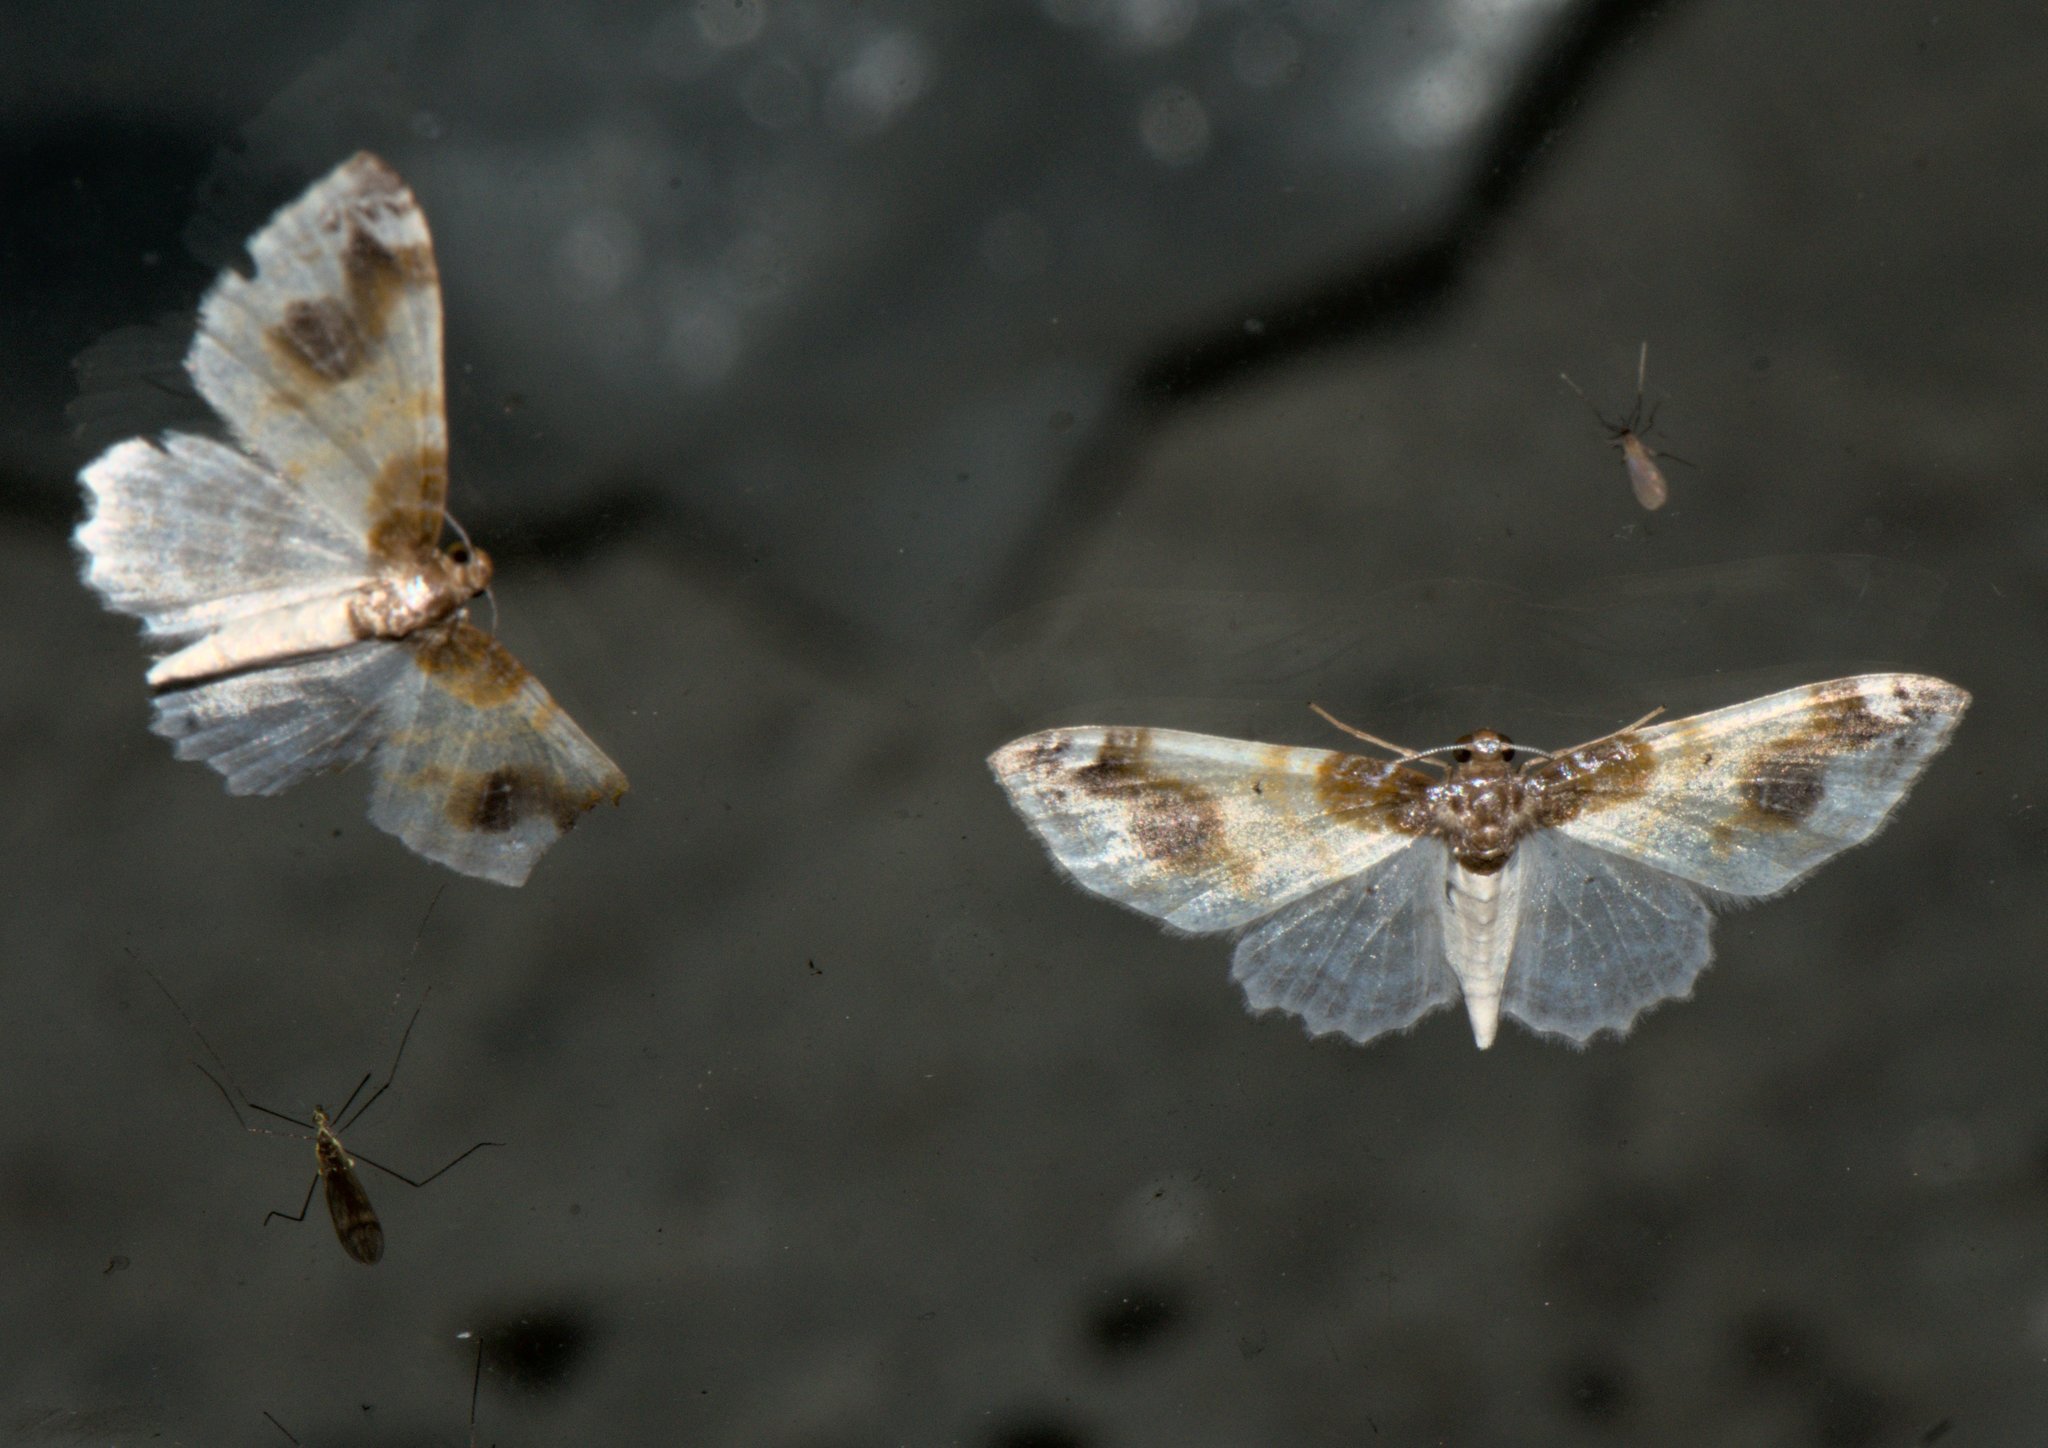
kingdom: Animalia
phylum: Arthropoda
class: Insecta
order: Lepidoptera
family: Geometridae
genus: Agnibesa
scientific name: Agnibesa pictaria
